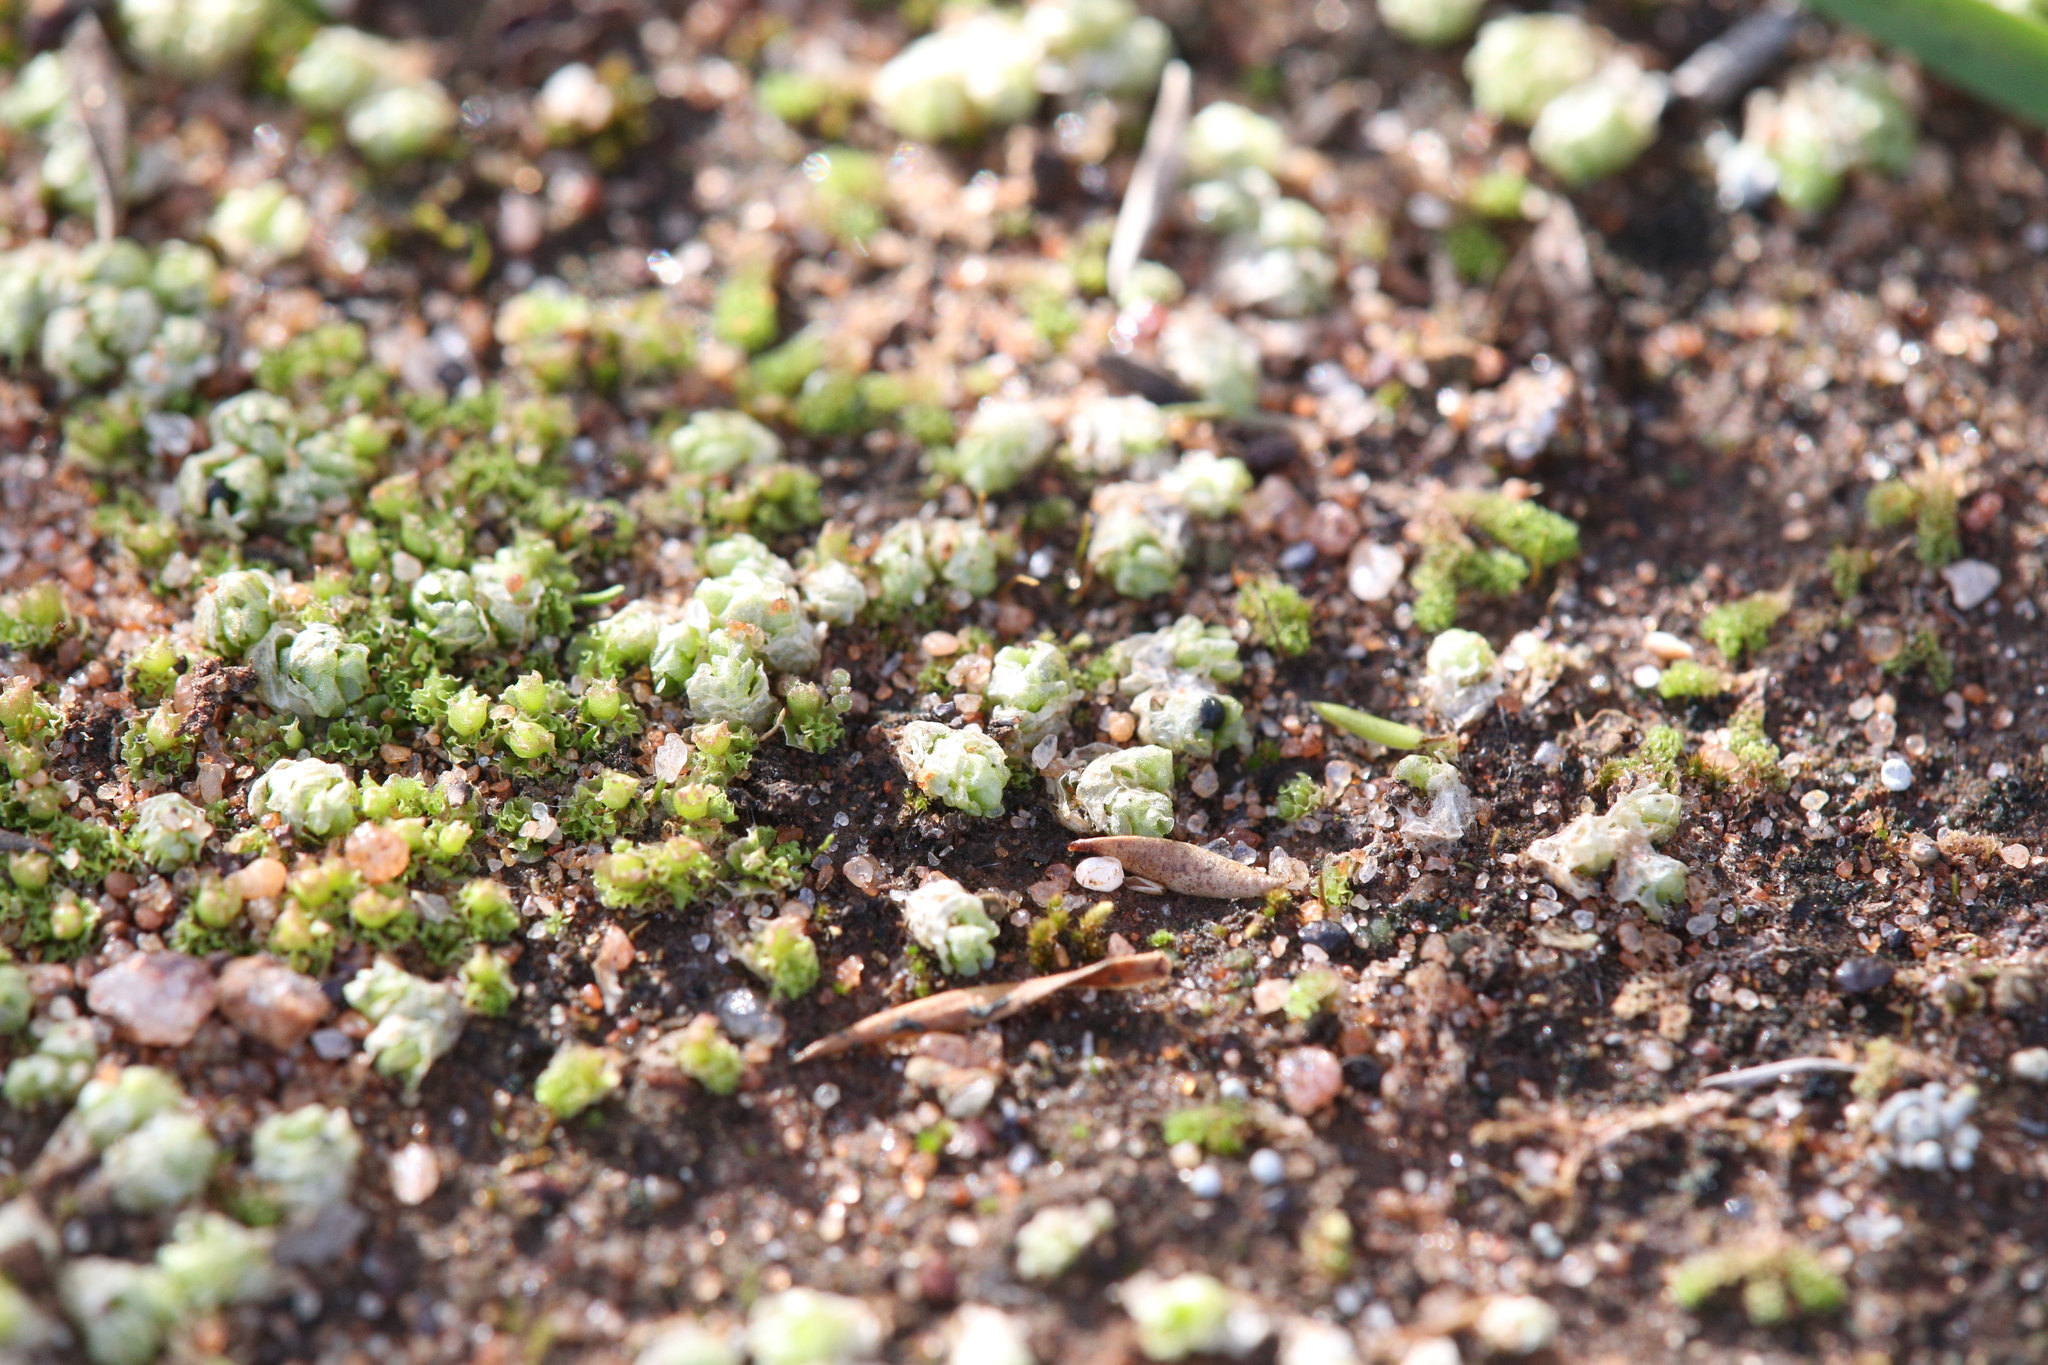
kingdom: Plantae
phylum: Marchantiophyta
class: Jungermanniopsida
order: Fossombroniales
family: Fossombroniaceae
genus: Fossombronia
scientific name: Fossombronia intestinalis
